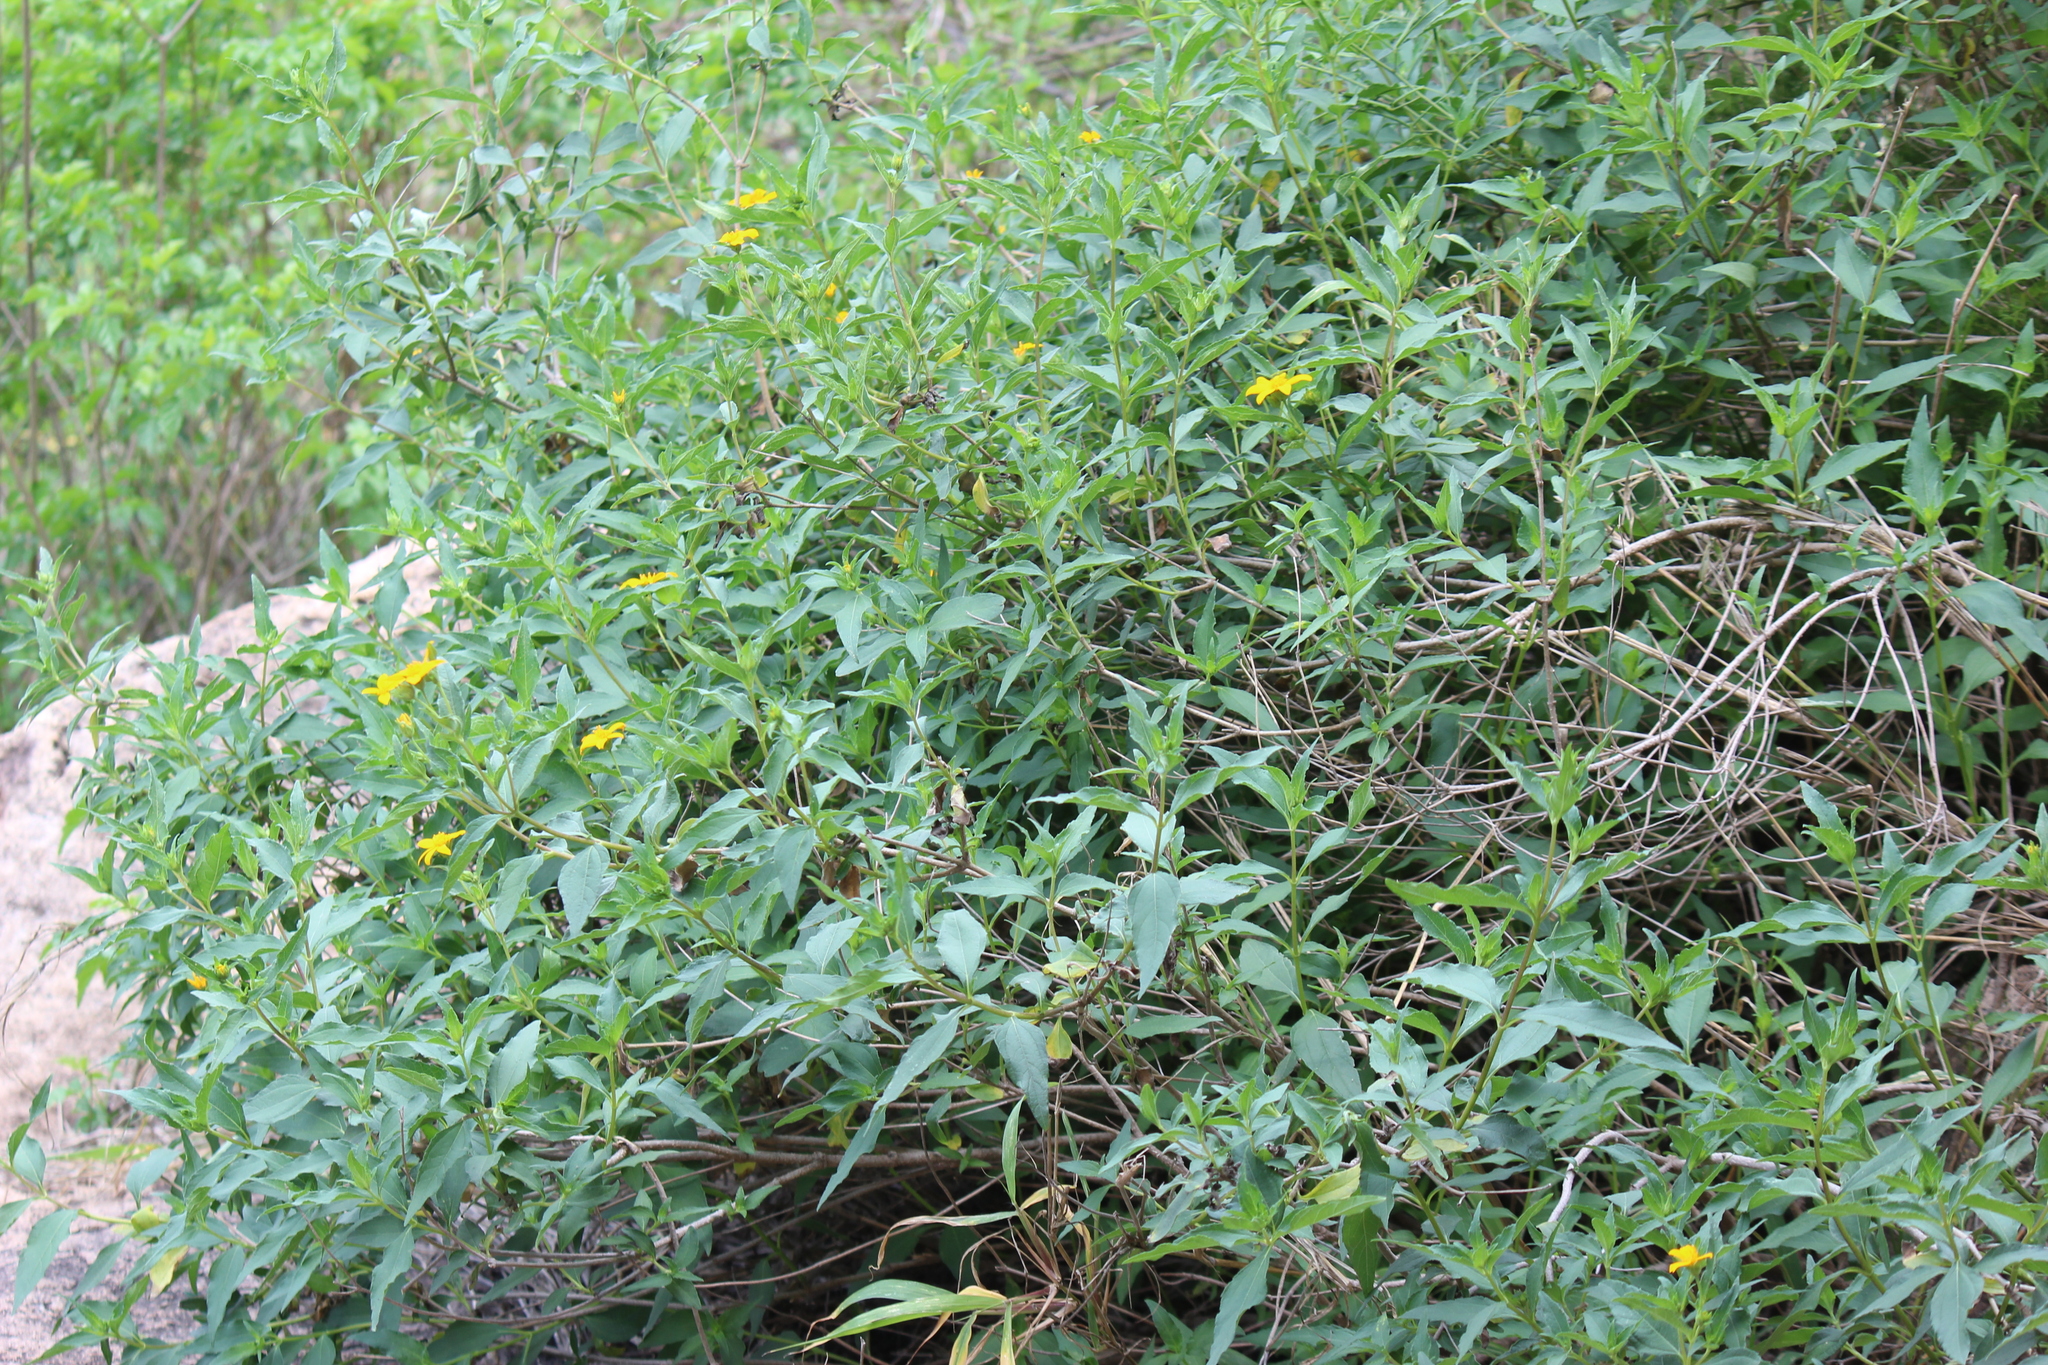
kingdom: Plantae
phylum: Tracheophyta
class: Magnoliopsida
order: Asterales
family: Asteraceae
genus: Aspilia
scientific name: Aspilia mossambicensis
